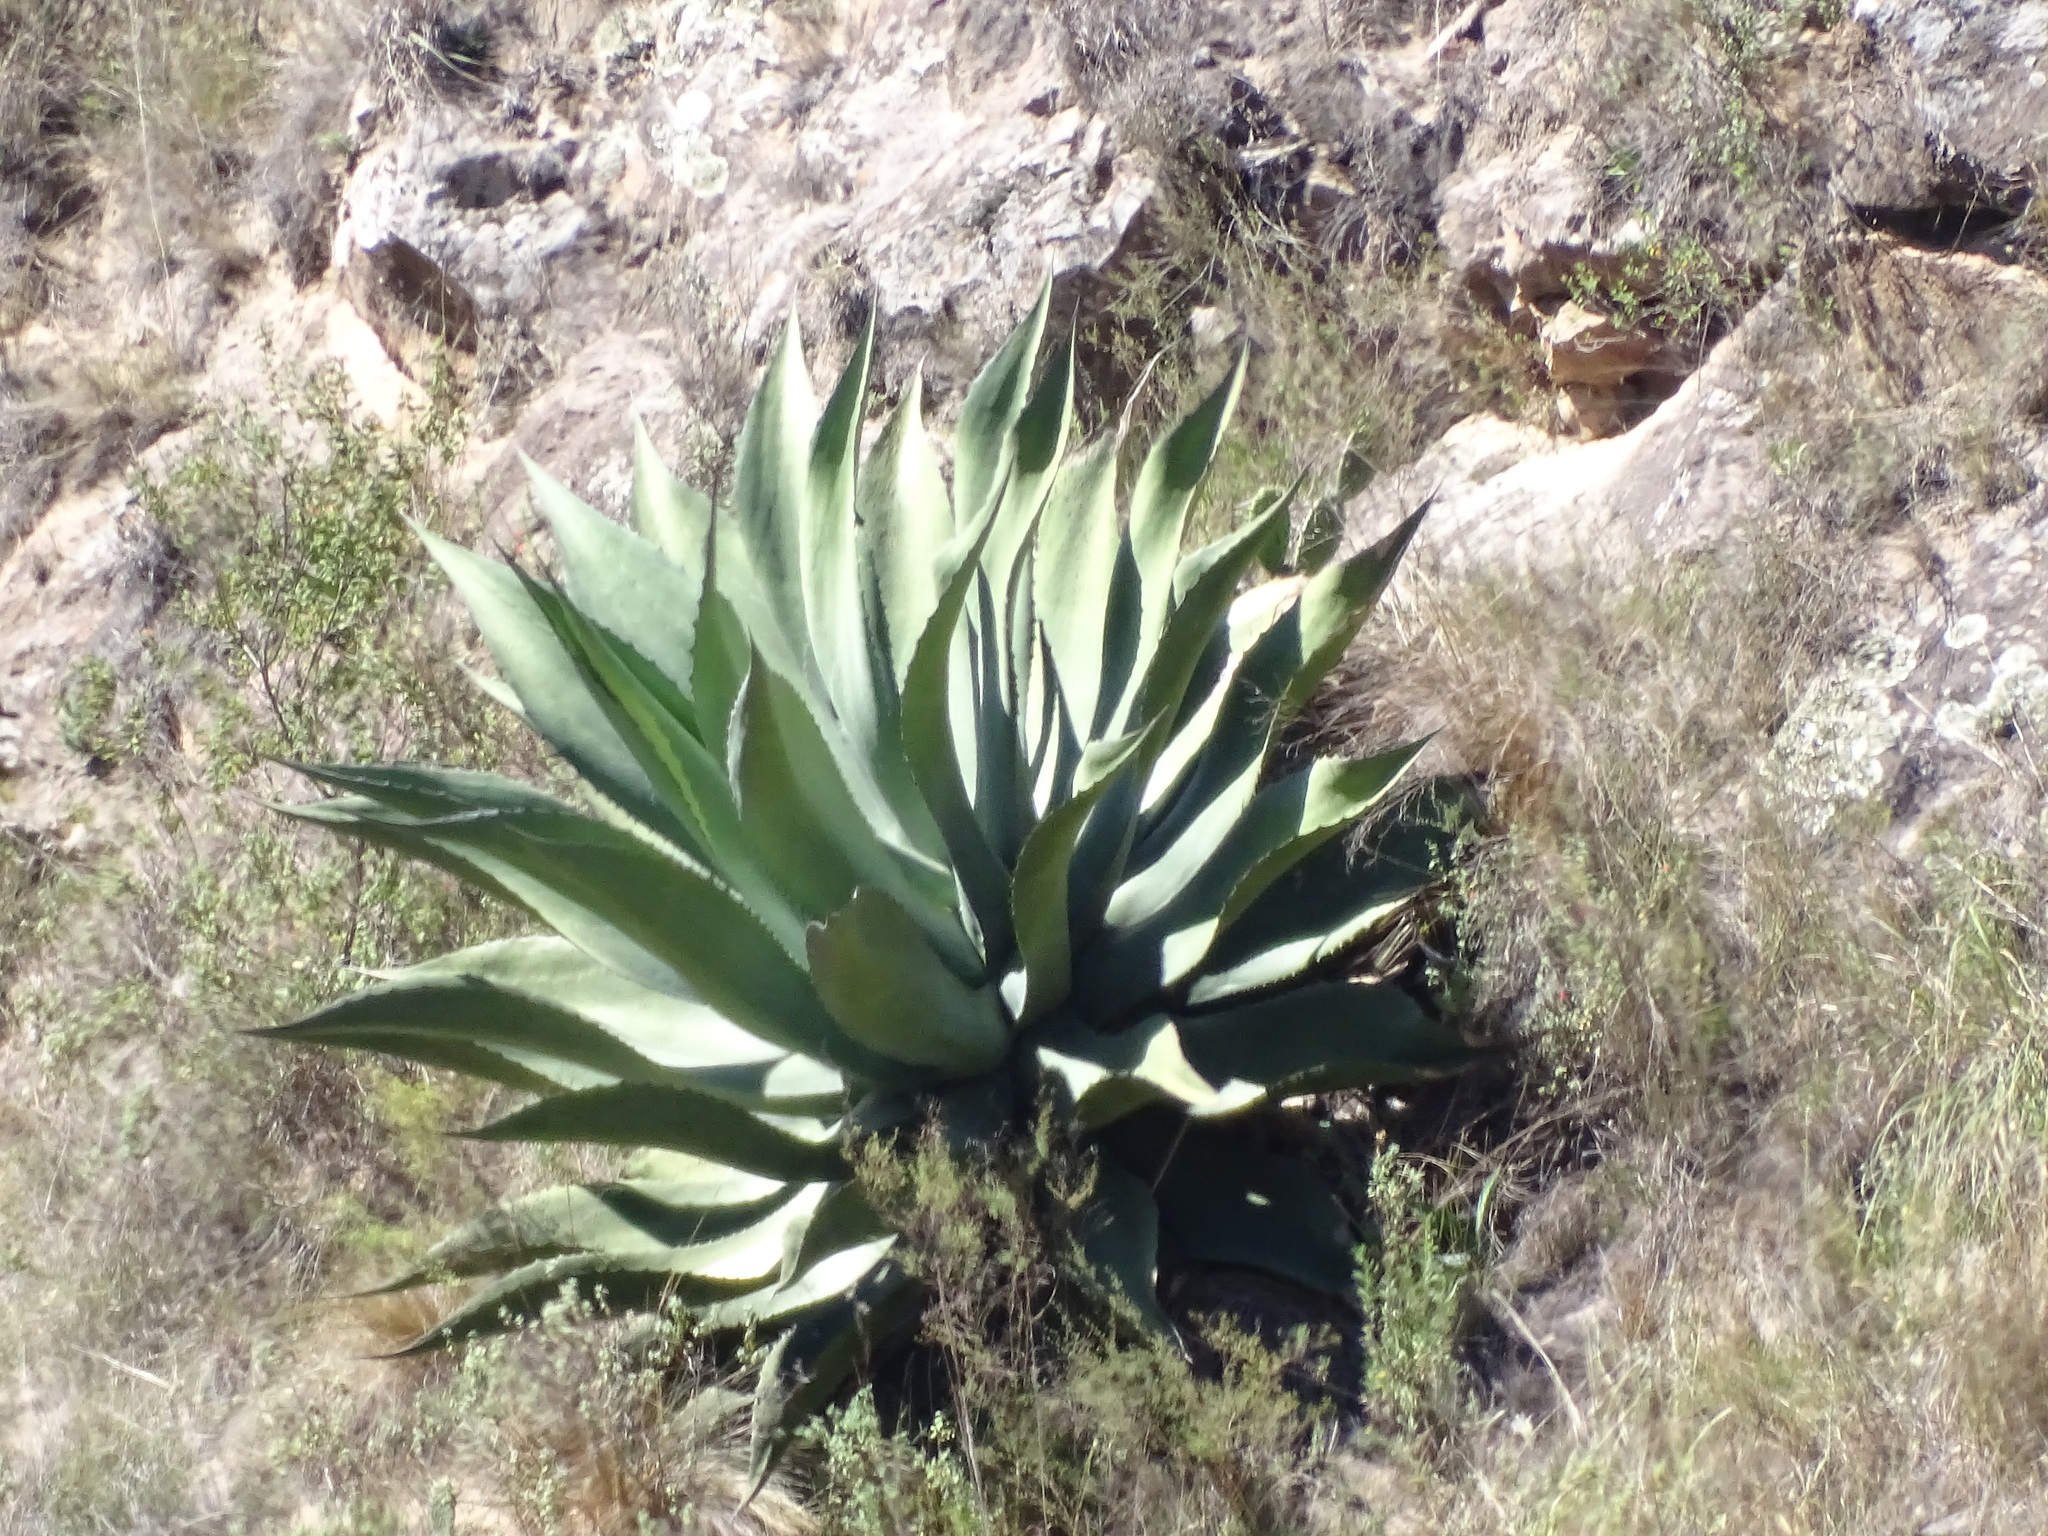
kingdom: Plantae
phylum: Tracheophyta
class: Liliopsida
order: Asparagales
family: Asparagaceae
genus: Agave
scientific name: Agave salmiana
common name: Pulque agave
